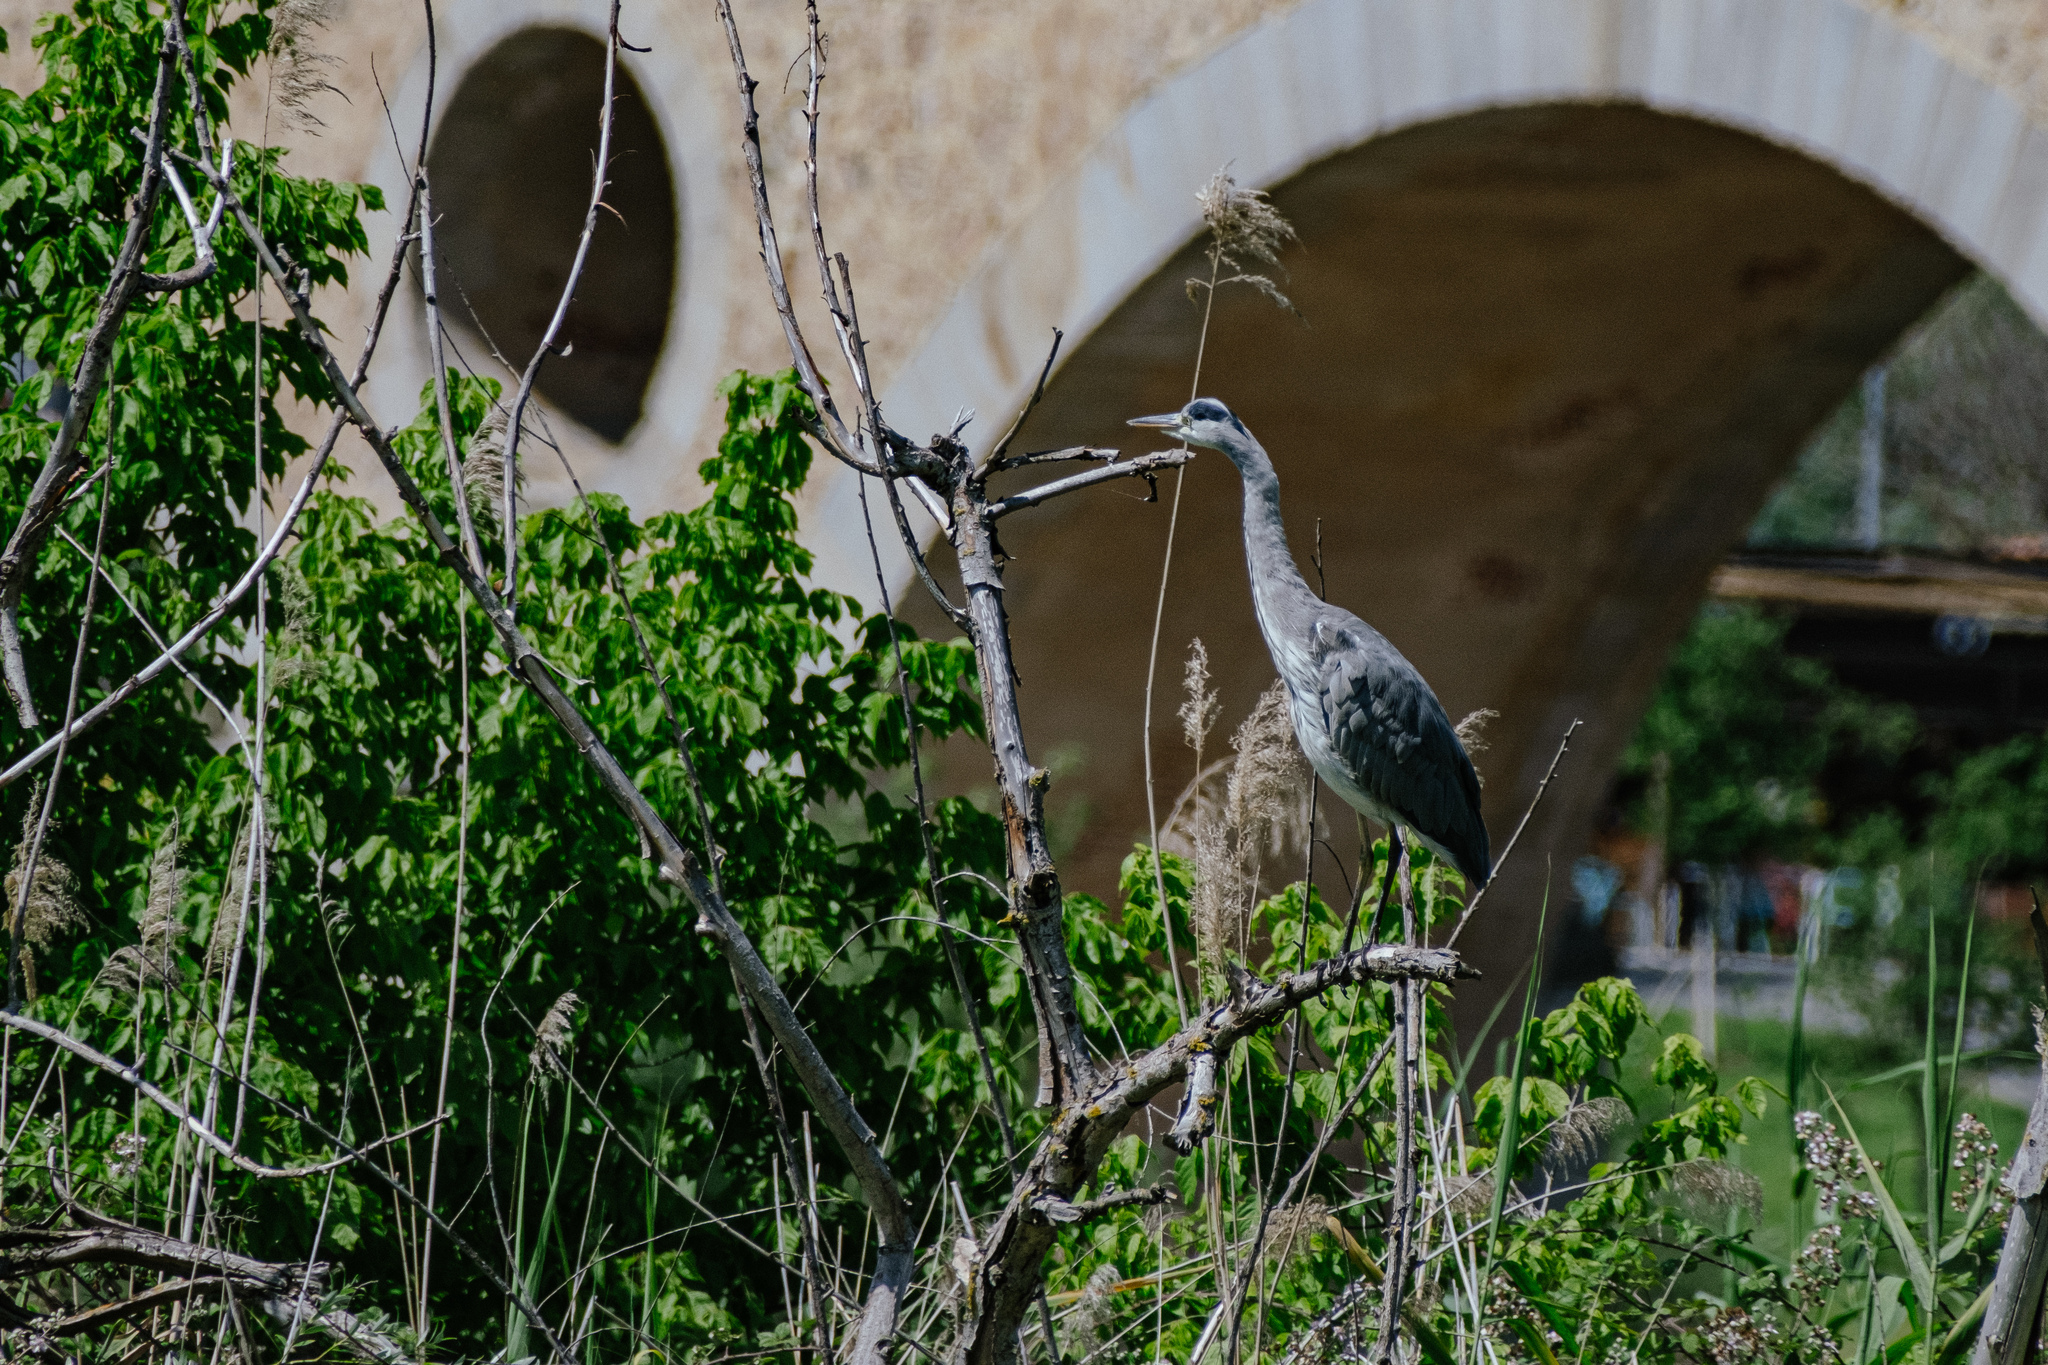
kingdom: Animalia
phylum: Chordata
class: Aves
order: Pelecaniformes
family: Ardeidae
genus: Ardea
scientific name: Ardea cinerea
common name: Grey heron
